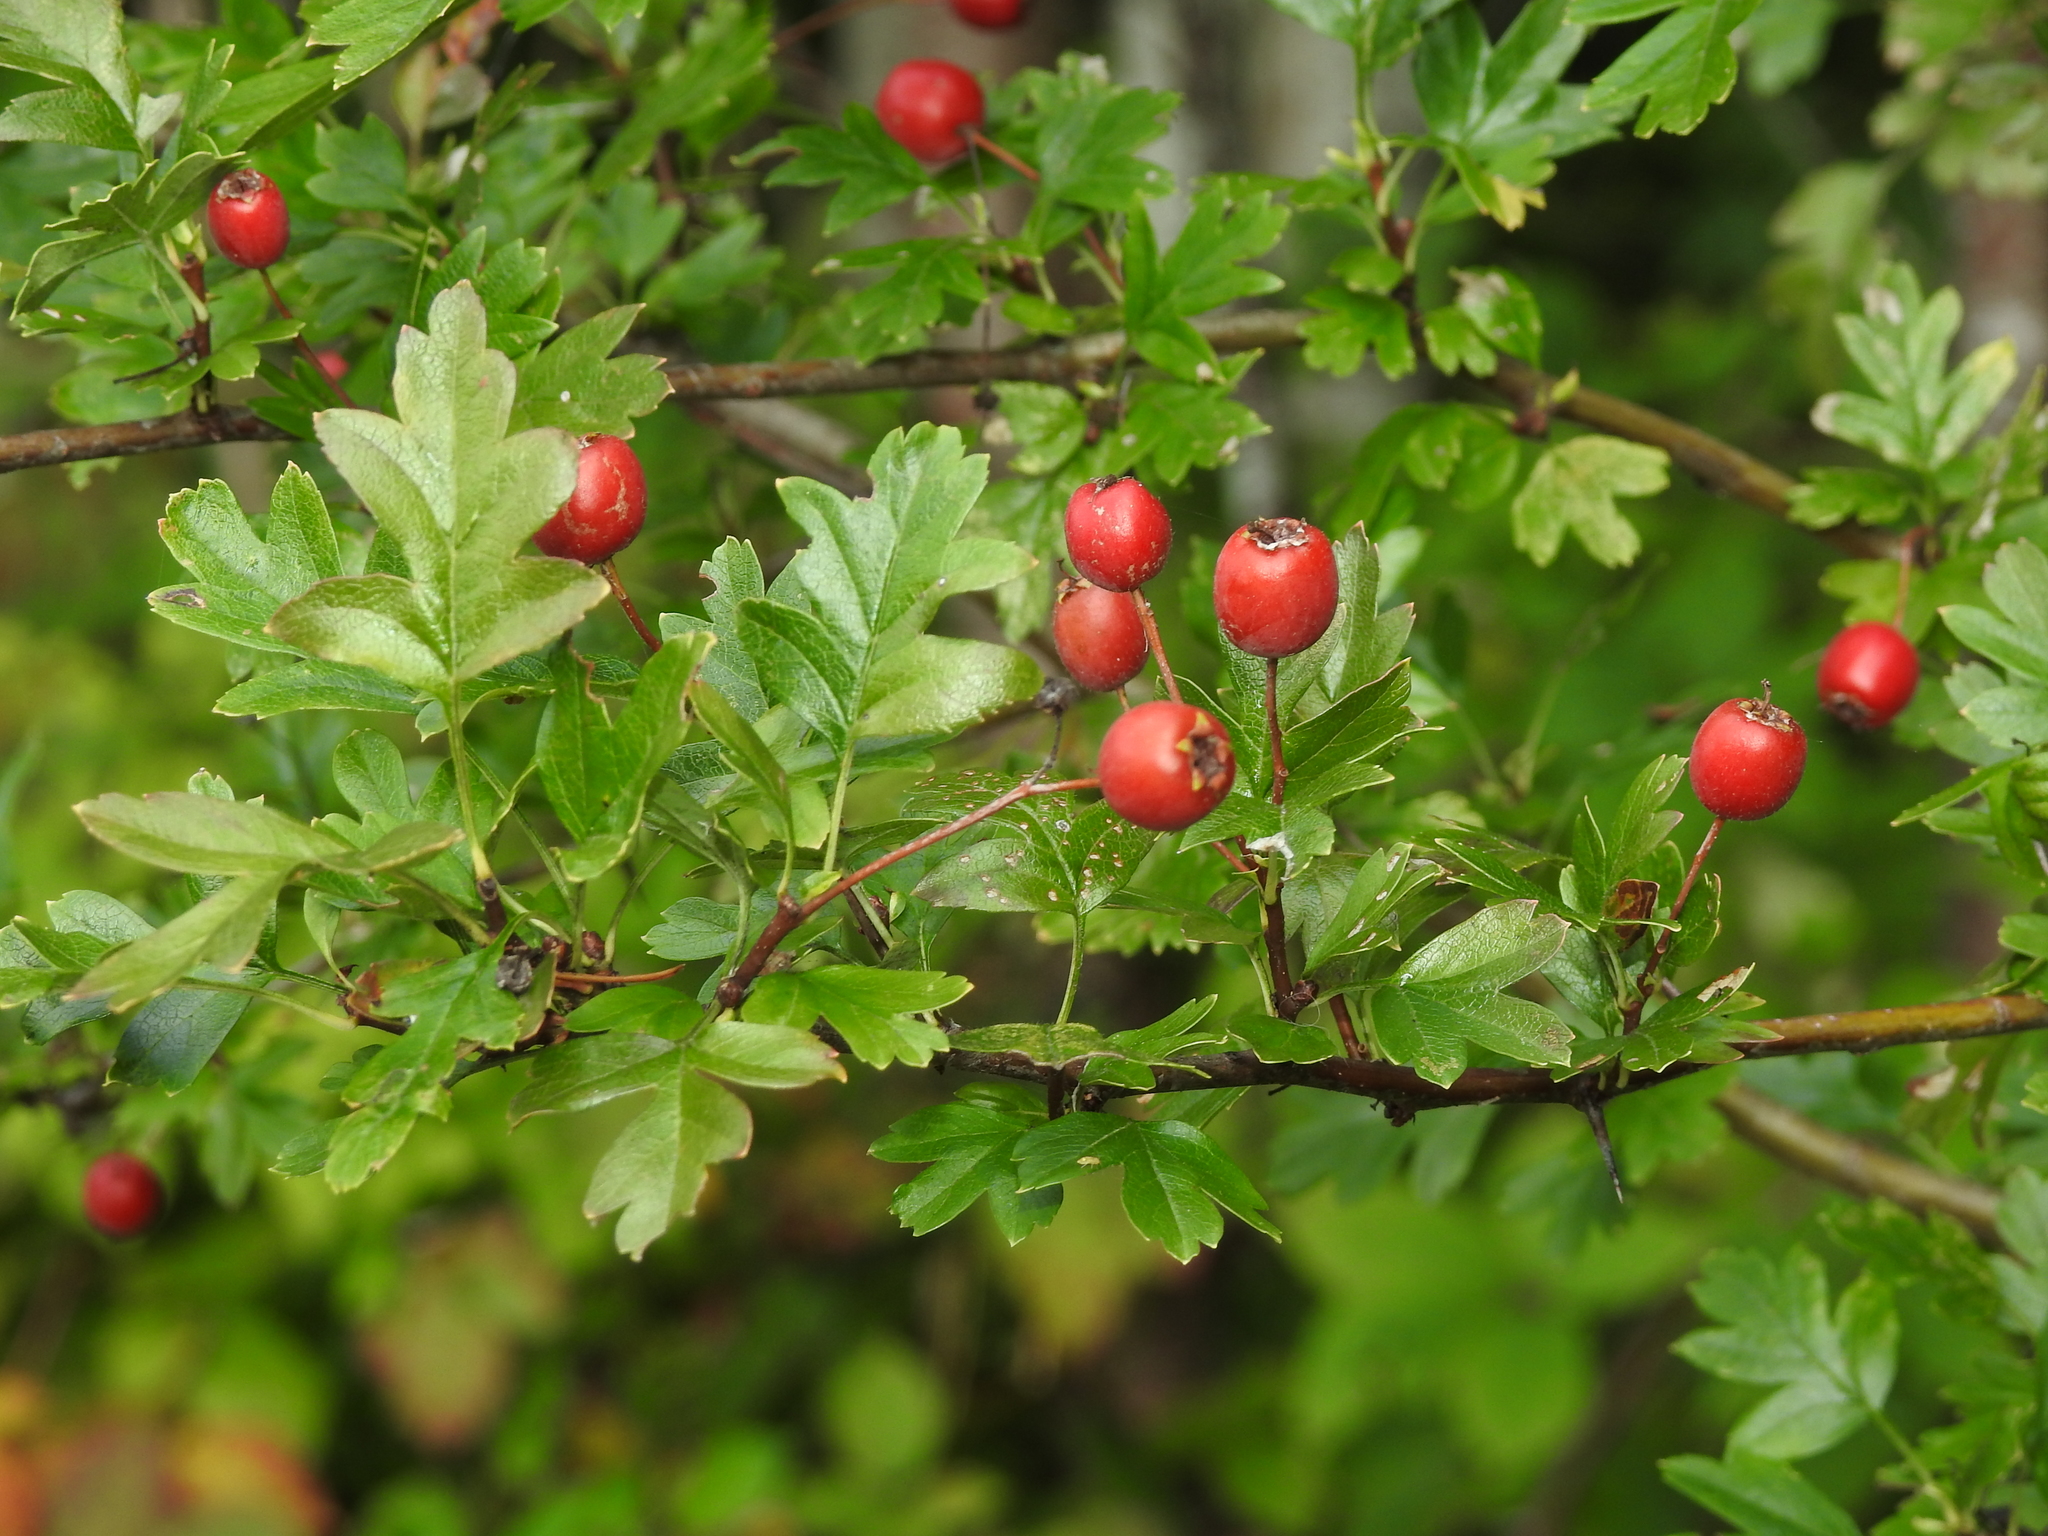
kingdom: Plantae
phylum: Tracheophyta
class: Magnoliopsida
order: Rosales
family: Rosaceae
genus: Crataegus
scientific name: Crataegus monogyna
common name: Hawthorn
